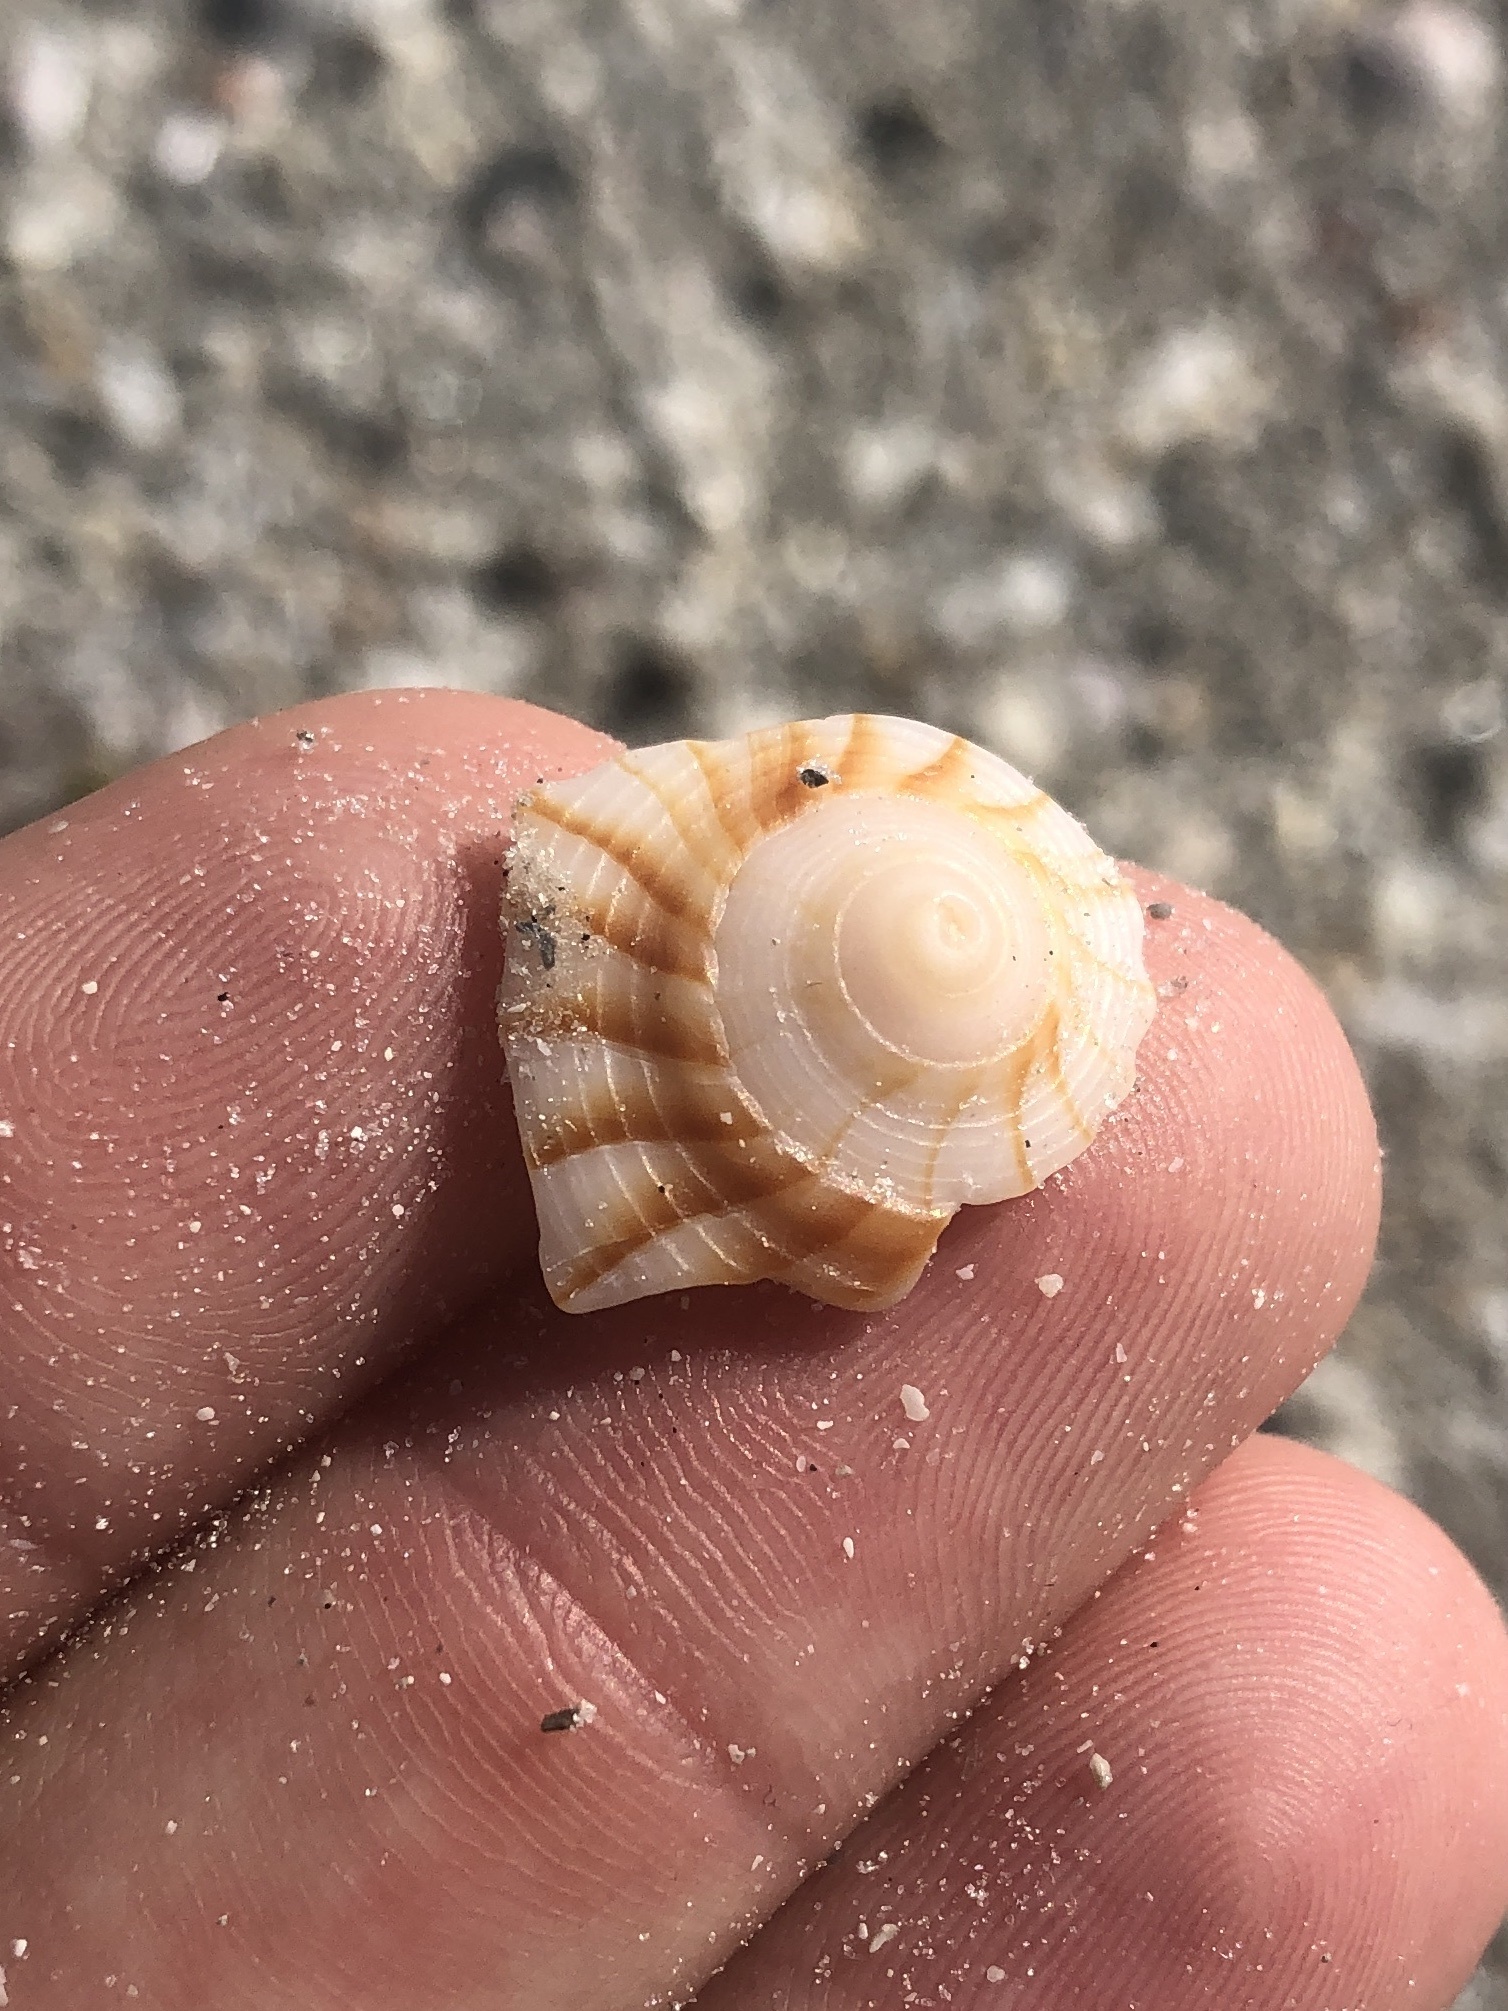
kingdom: Animalia
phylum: Mollusca
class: Gastropoda
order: Neogastropoda
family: Busyconidae
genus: Sinistrofulgur
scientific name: Sinistrofulgur sinistrum
